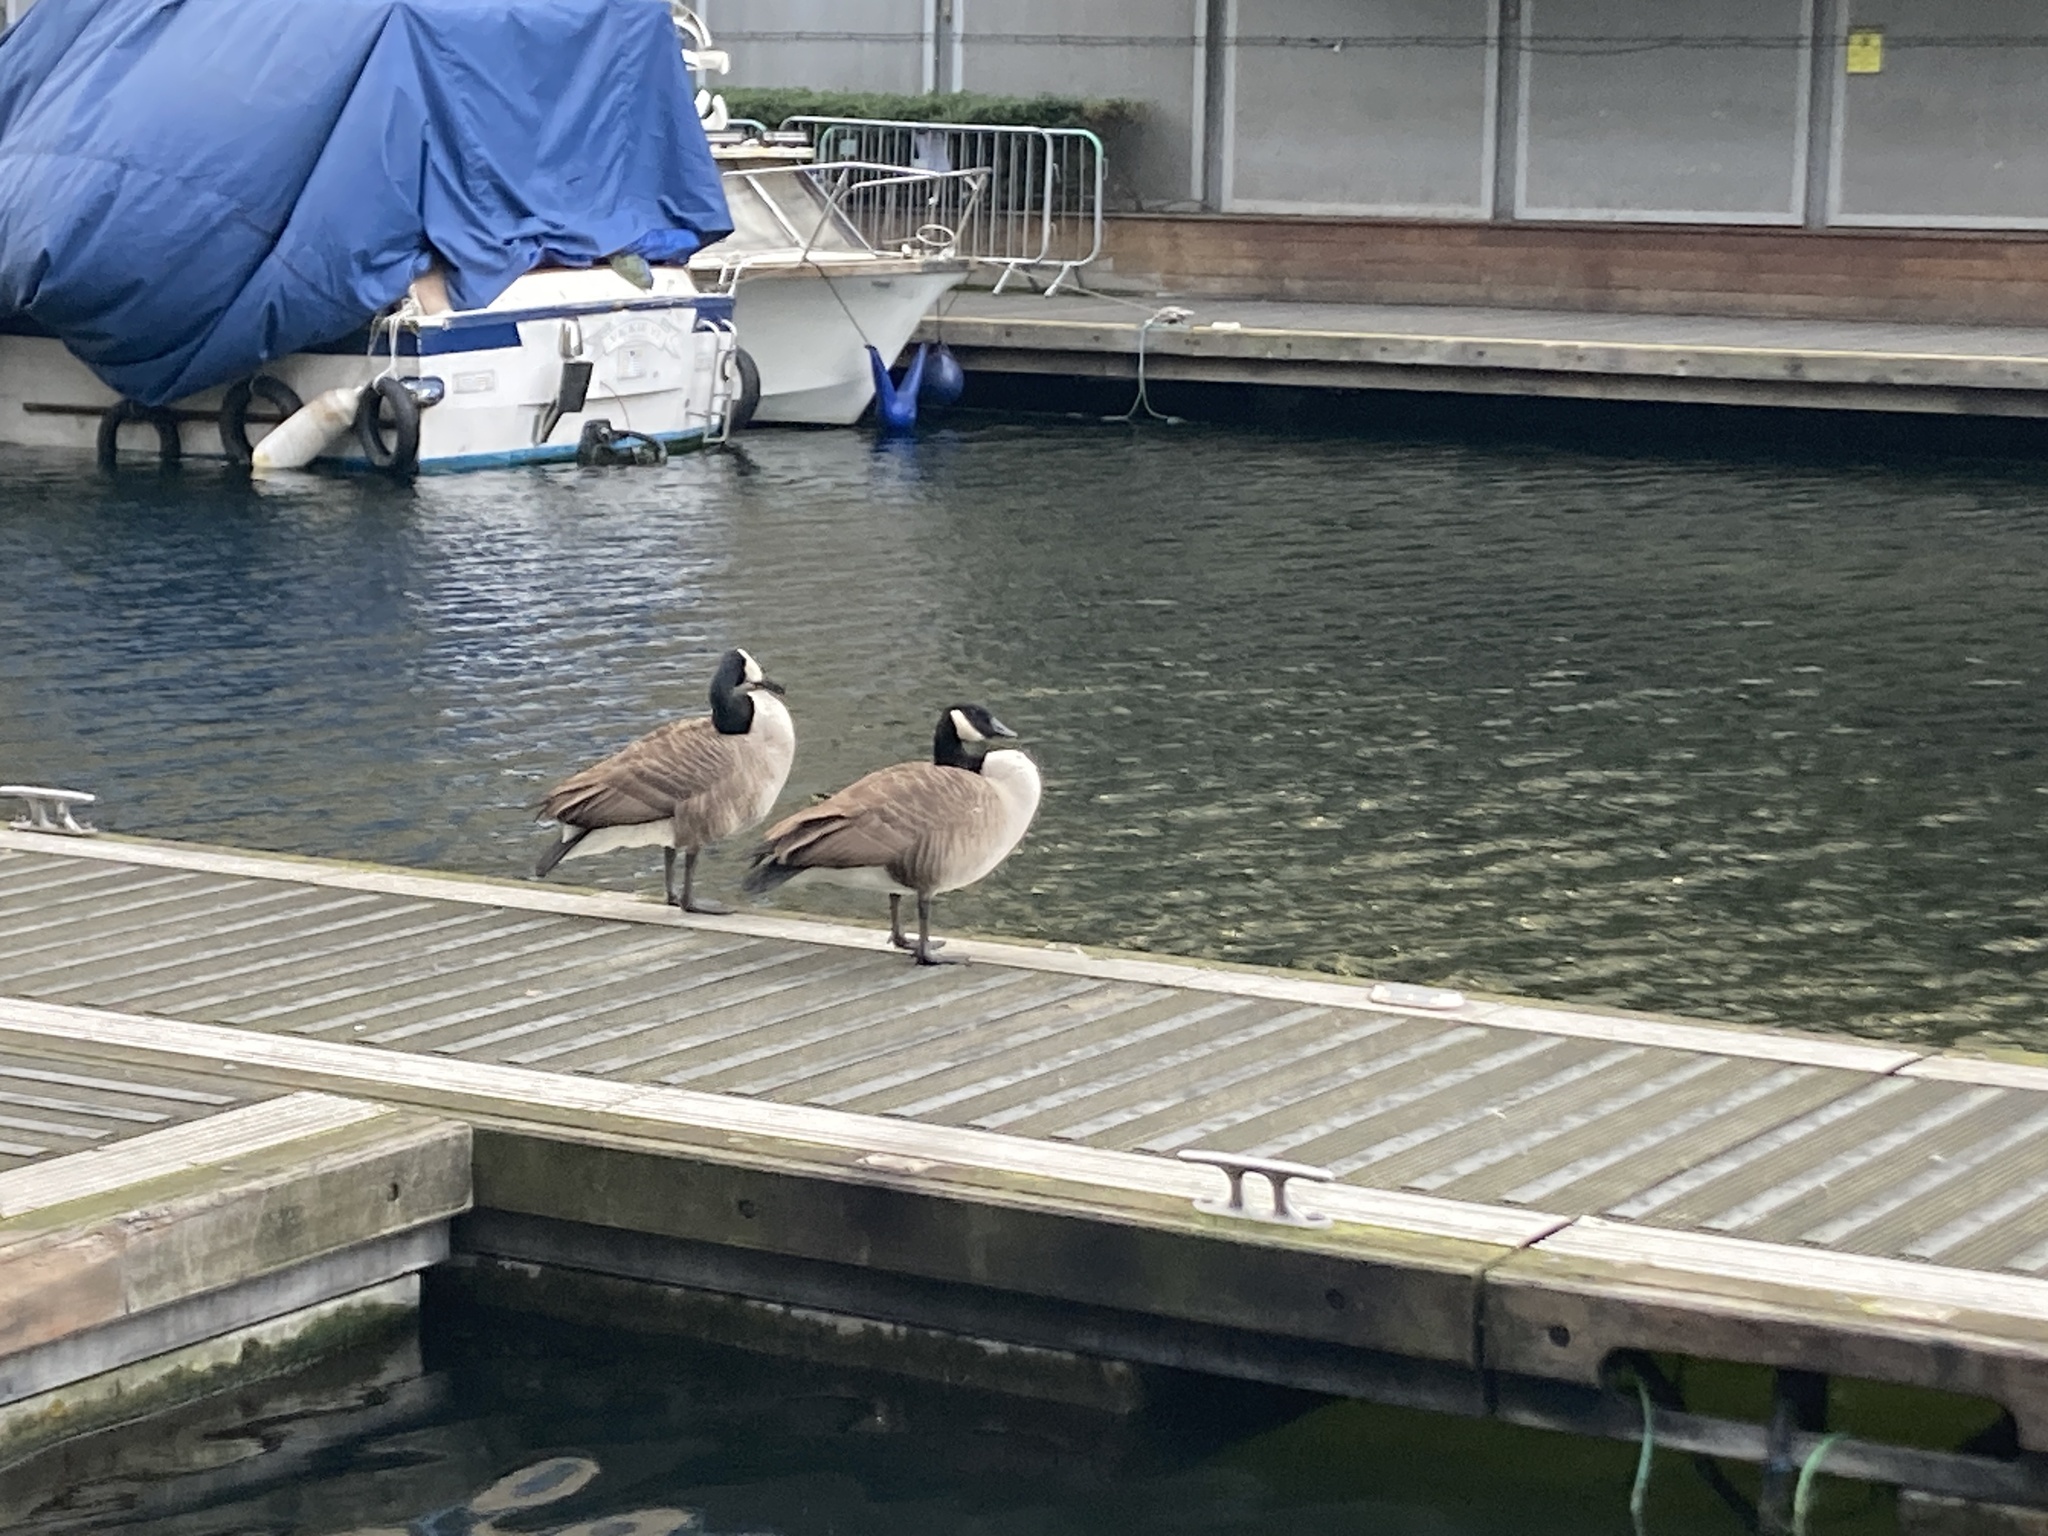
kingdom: Animalia
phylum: Chordata
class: Aves
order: Anseriformes
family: Anatidae
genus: Branta
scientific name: Branta canadensis
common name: Canada goose
